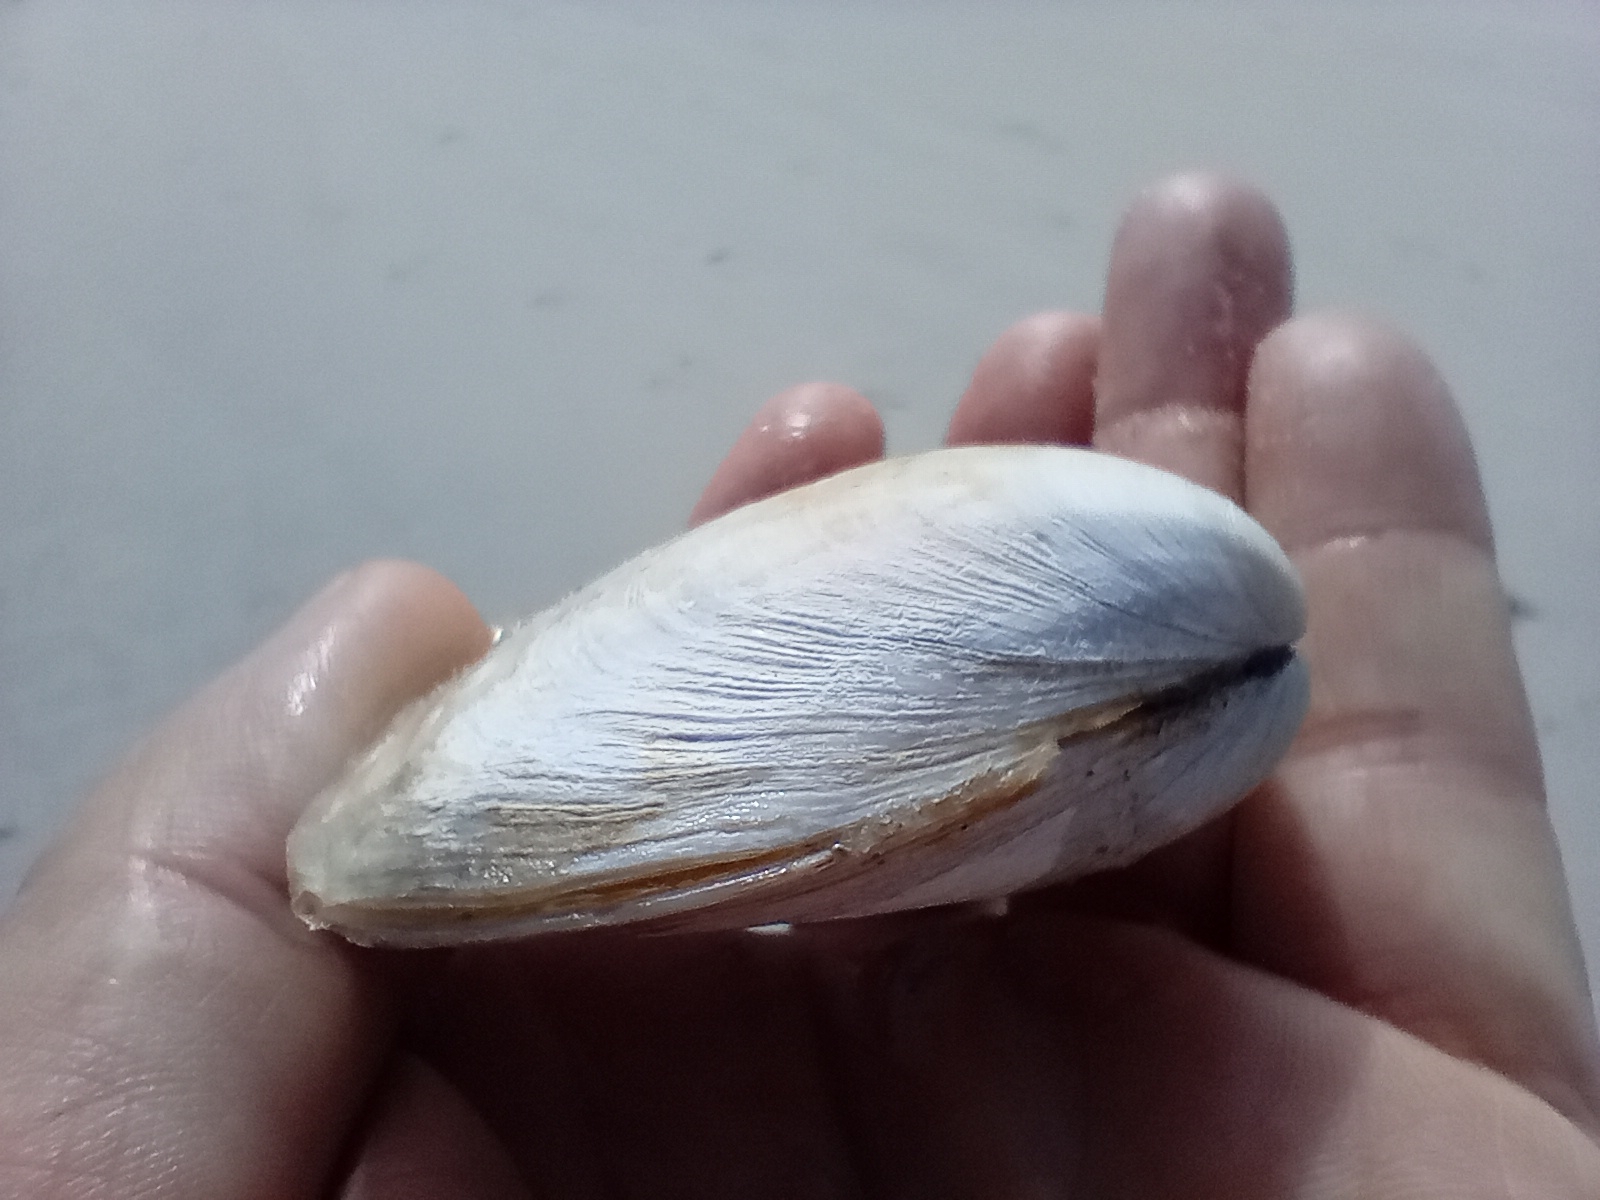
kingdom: Animalia
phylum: Mollusca
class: Bivalvia
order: Venerida
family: Mesodesmatidae
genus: Paphies
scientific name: Paphies donacina
